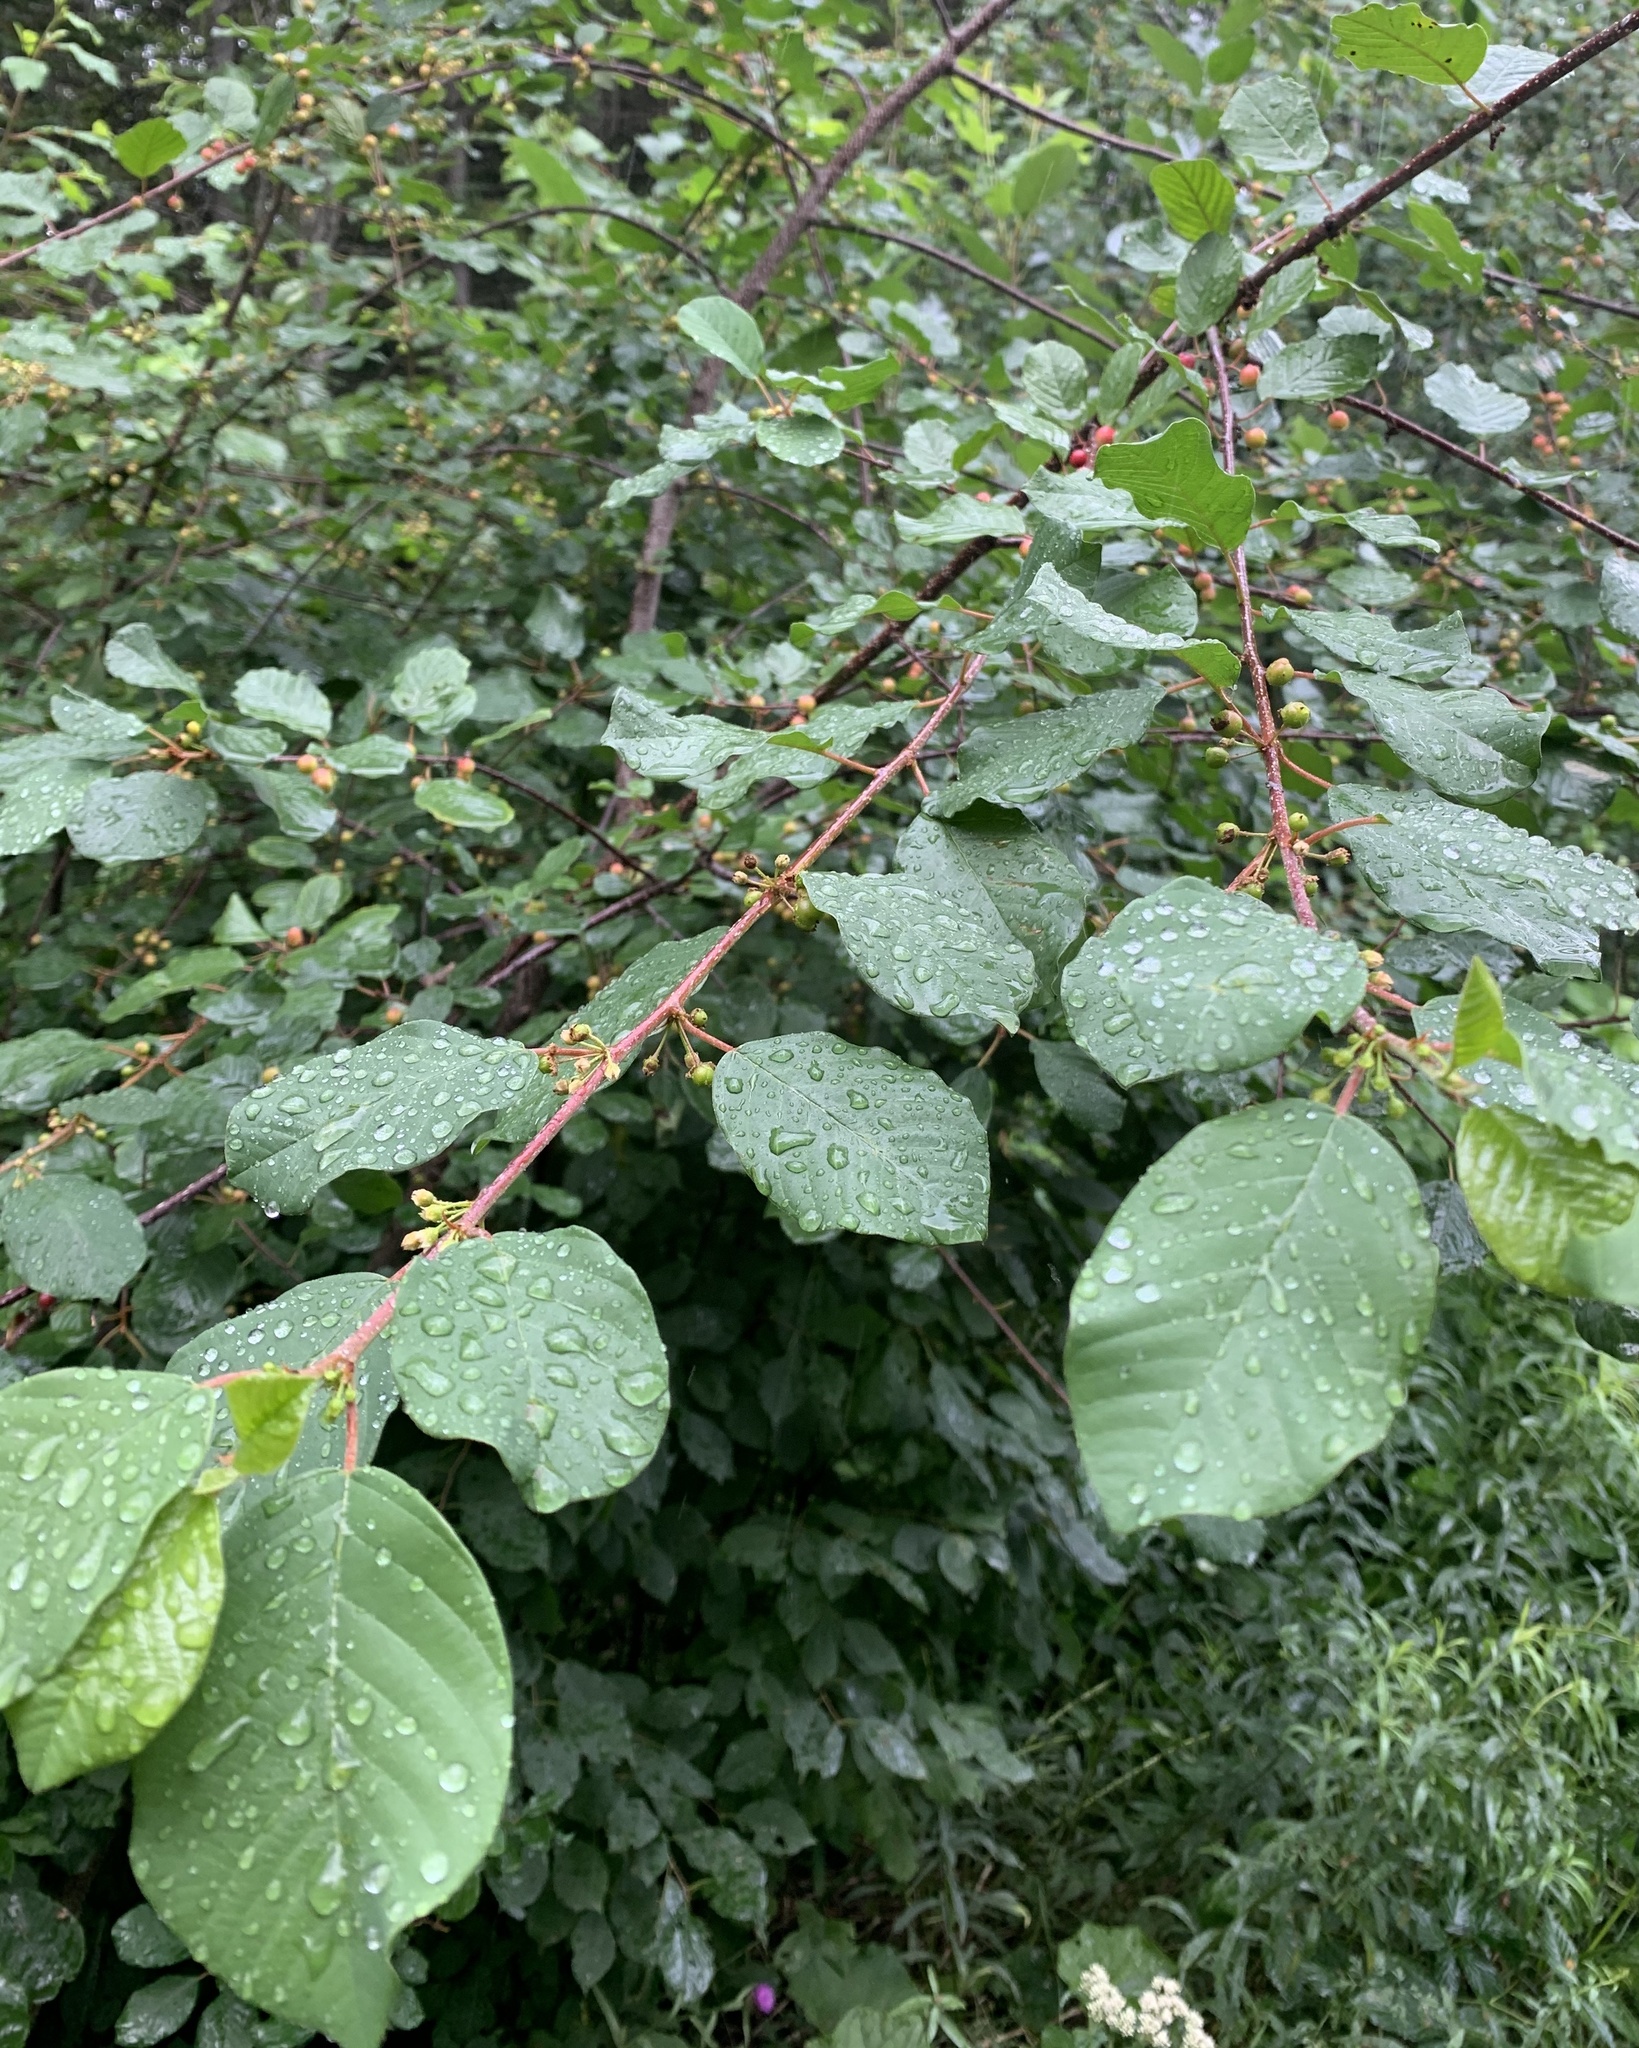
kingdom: Plantae
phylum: Tracheophyta
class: Magnoliopsida
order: Rosales
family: Rhamnaceae
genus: Frangula
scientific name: Frangula alnus
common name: Alder buckthorn
